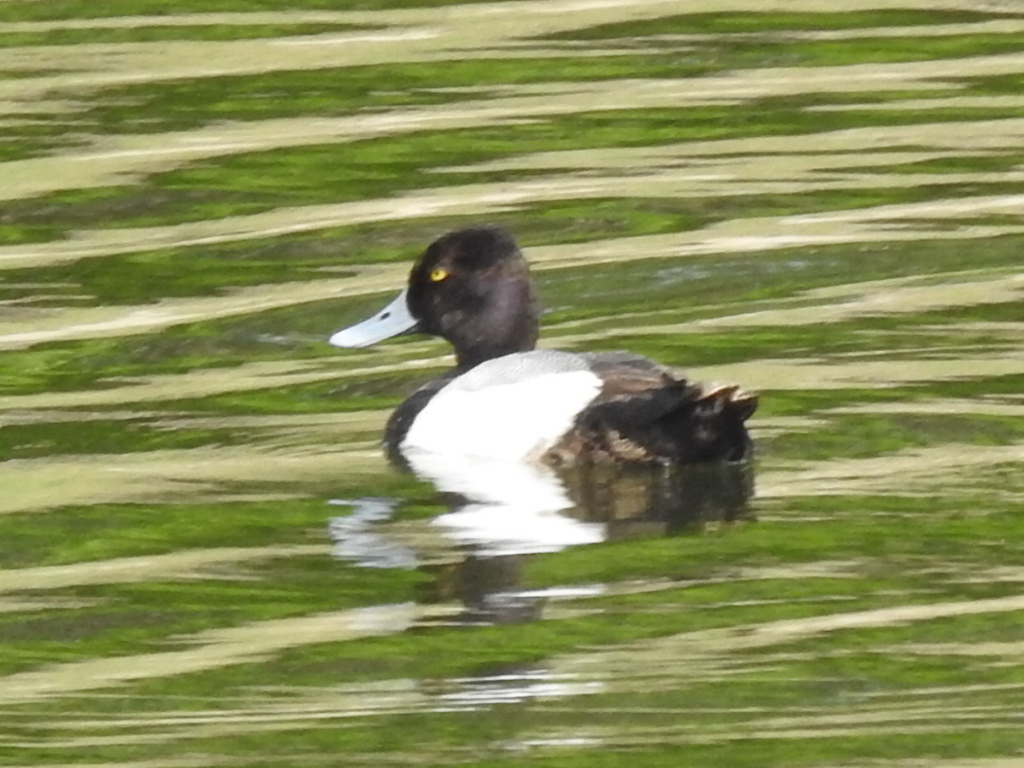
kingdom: Animalia
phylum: Chordata
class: Aves
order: Anseriformes
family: Anatidae
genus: Aythya
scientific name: Aythya affinis
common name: Lesser scaup
